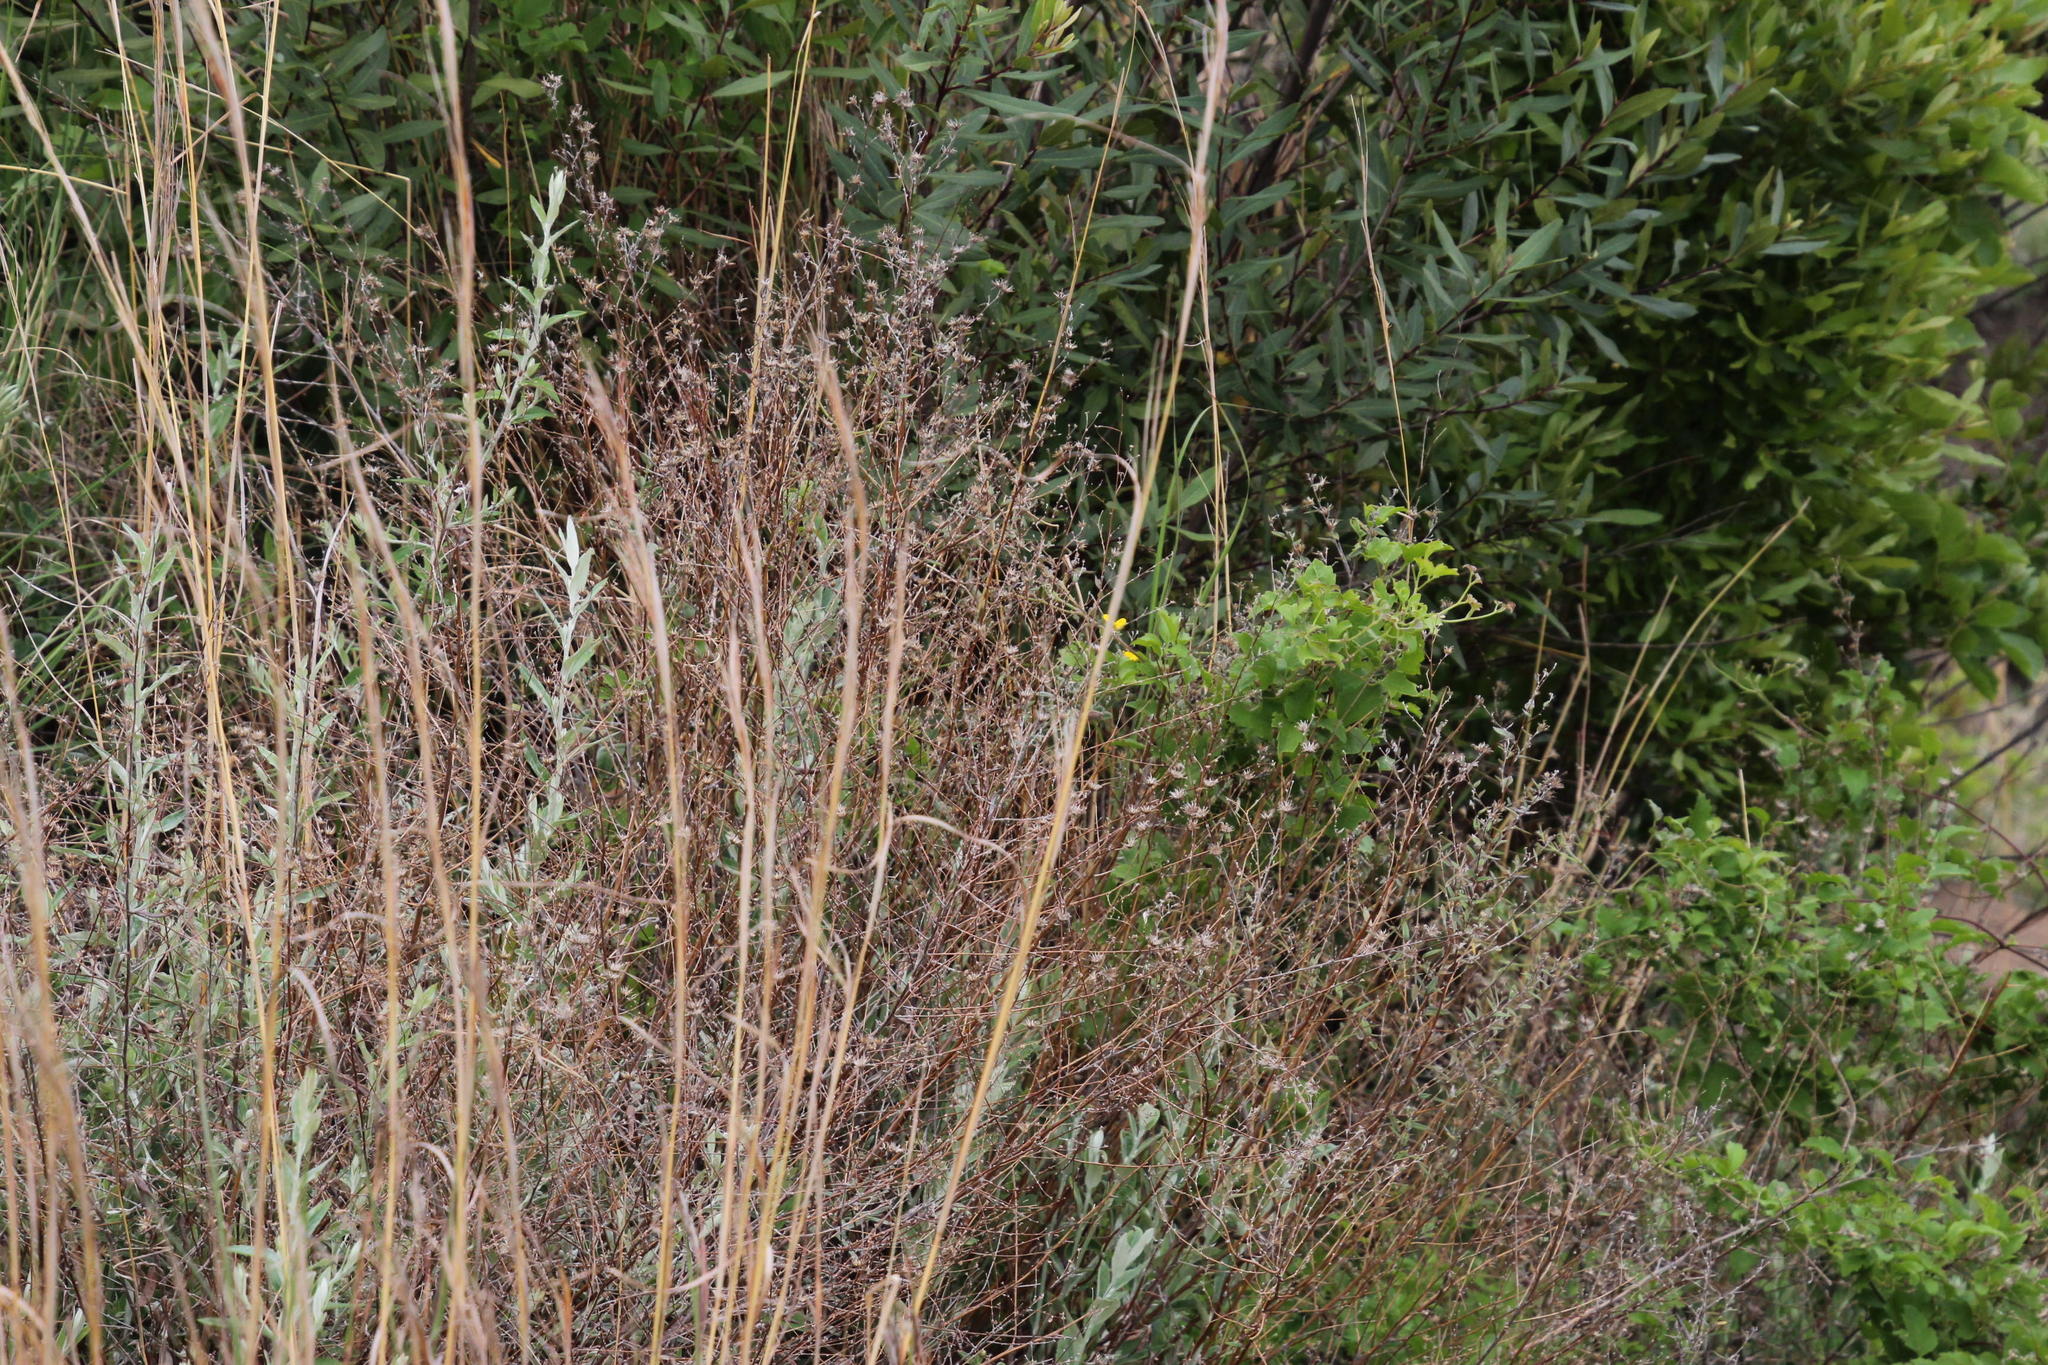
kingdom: Plantae
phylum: Tracheophyta
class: Magnoliopsida
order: Asterales
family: Asteraceae
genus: Athrixia
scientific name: Athrixia phylicoides
